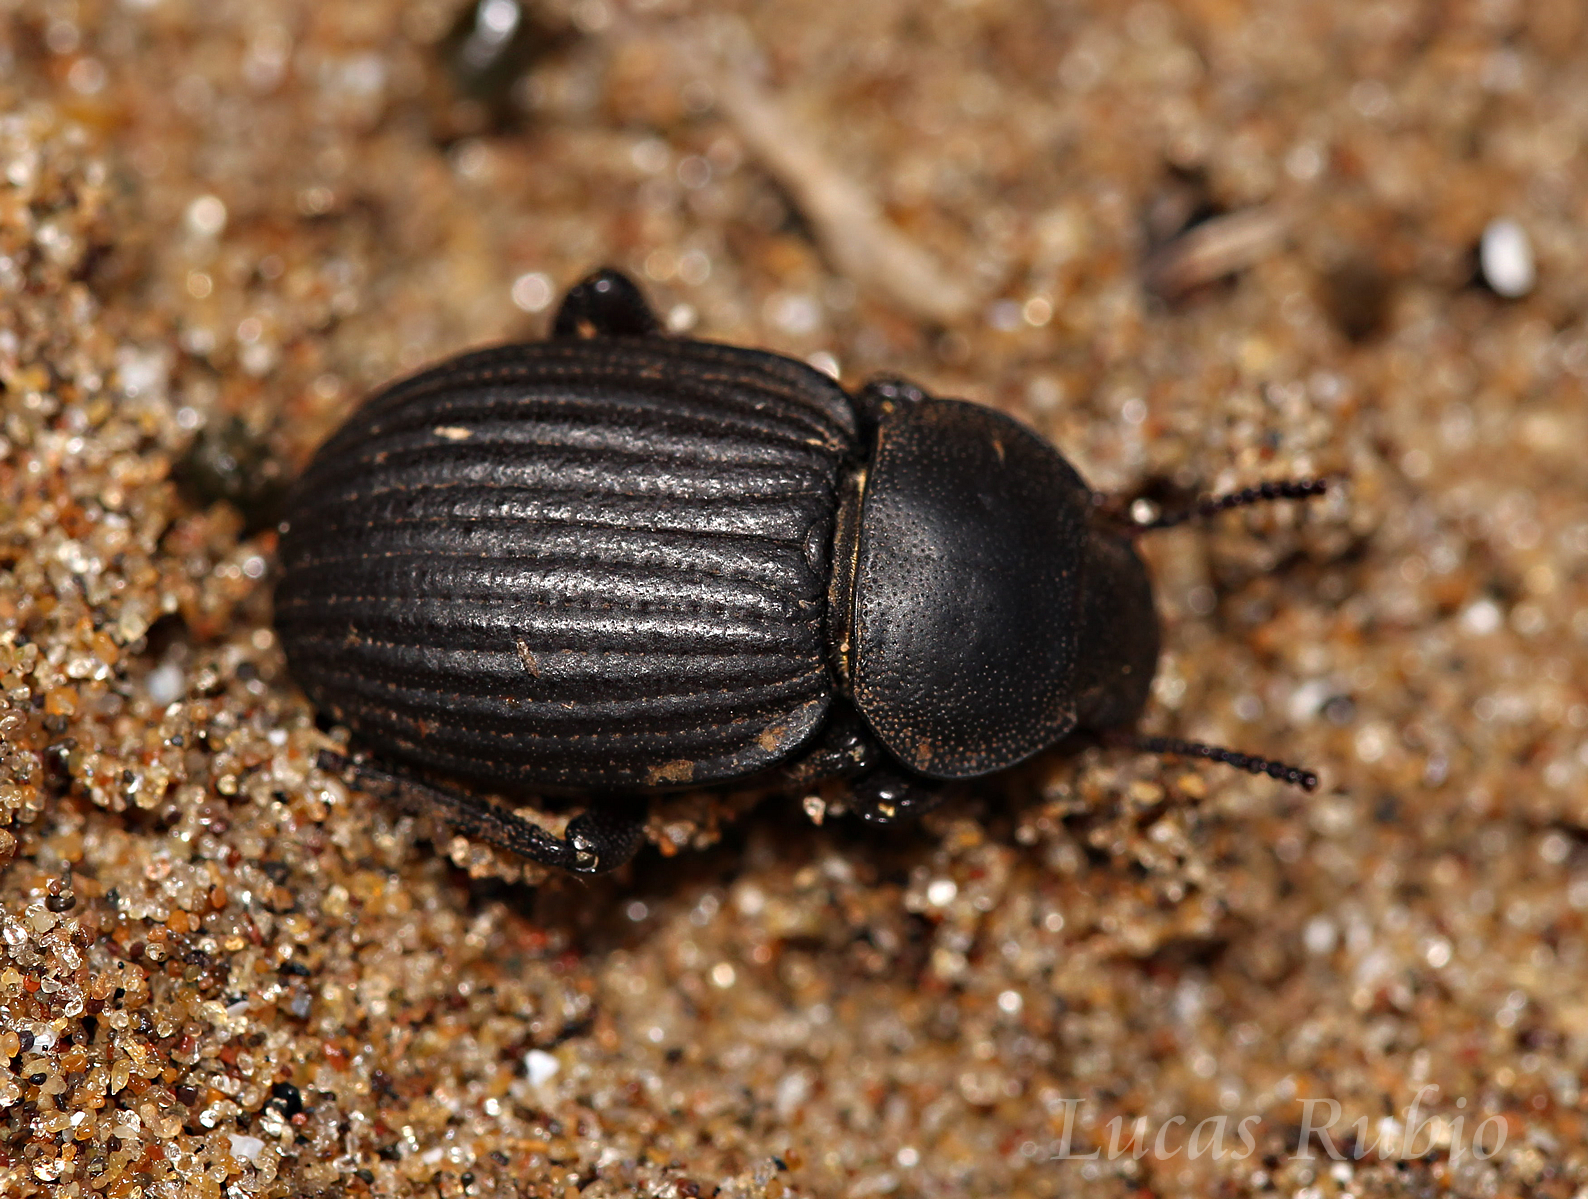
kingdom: Animalia
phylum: Arthropoda
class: Insecta
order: Coleoptera
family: Tenebrionidae
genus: Scotobius
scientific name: Scotobius
